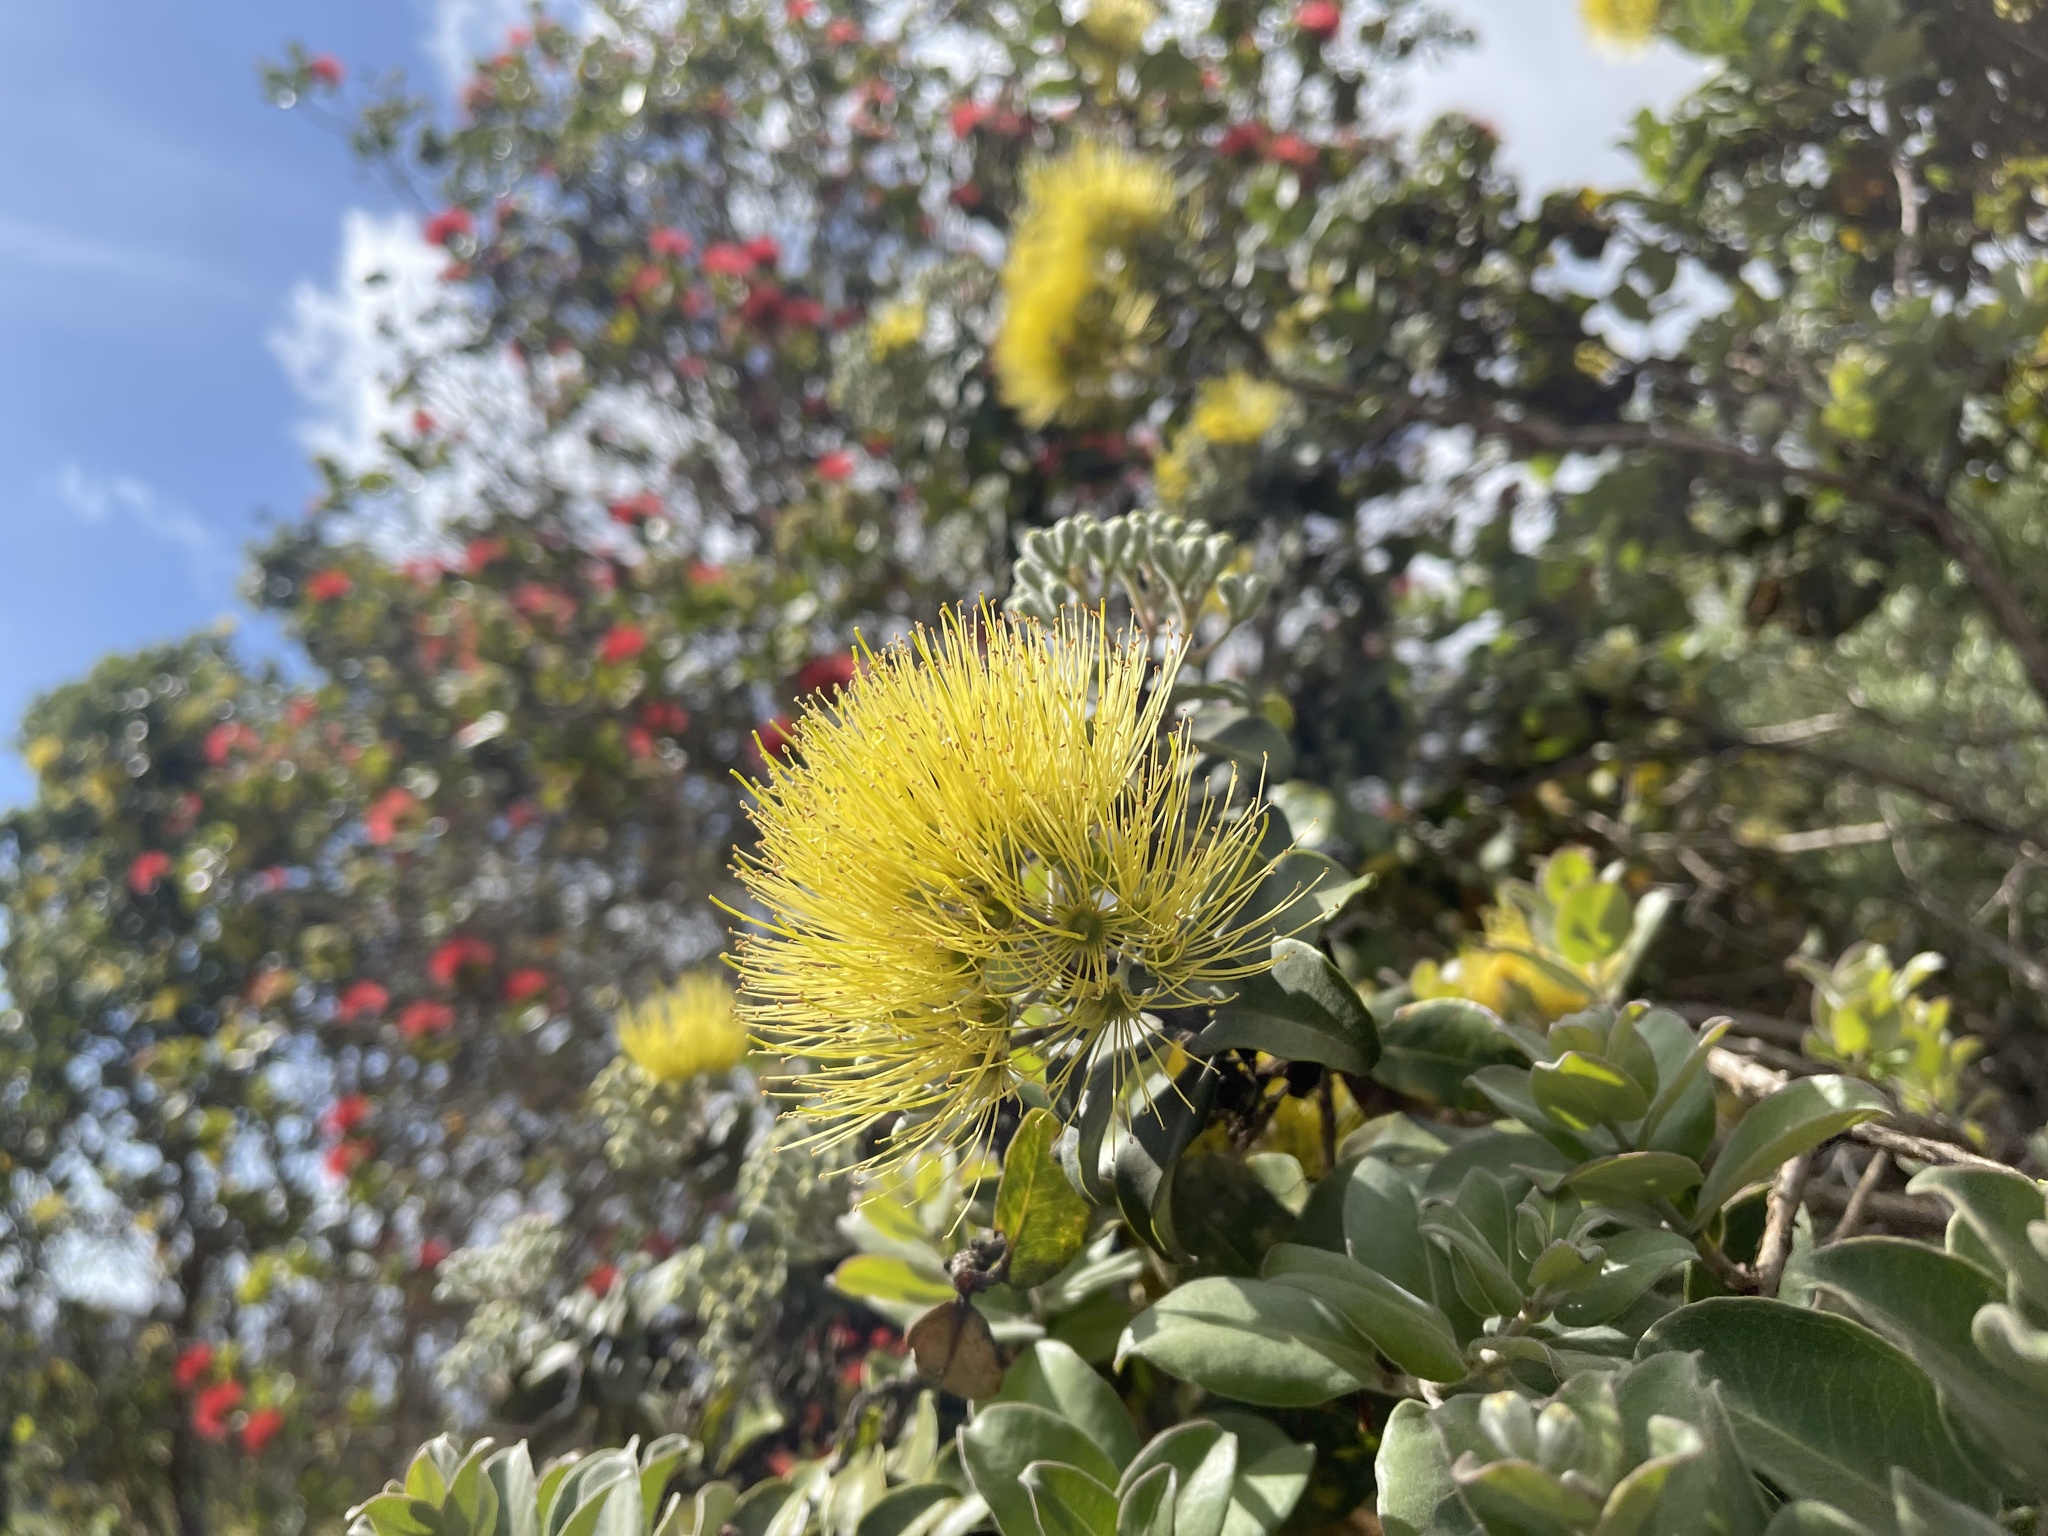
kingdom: Plantae
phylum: Tracheophyta
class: Magnoliopsida
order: Myrtales
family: Myrtaceae
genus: Metrosideros
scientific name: Metrosideros polymorpha
